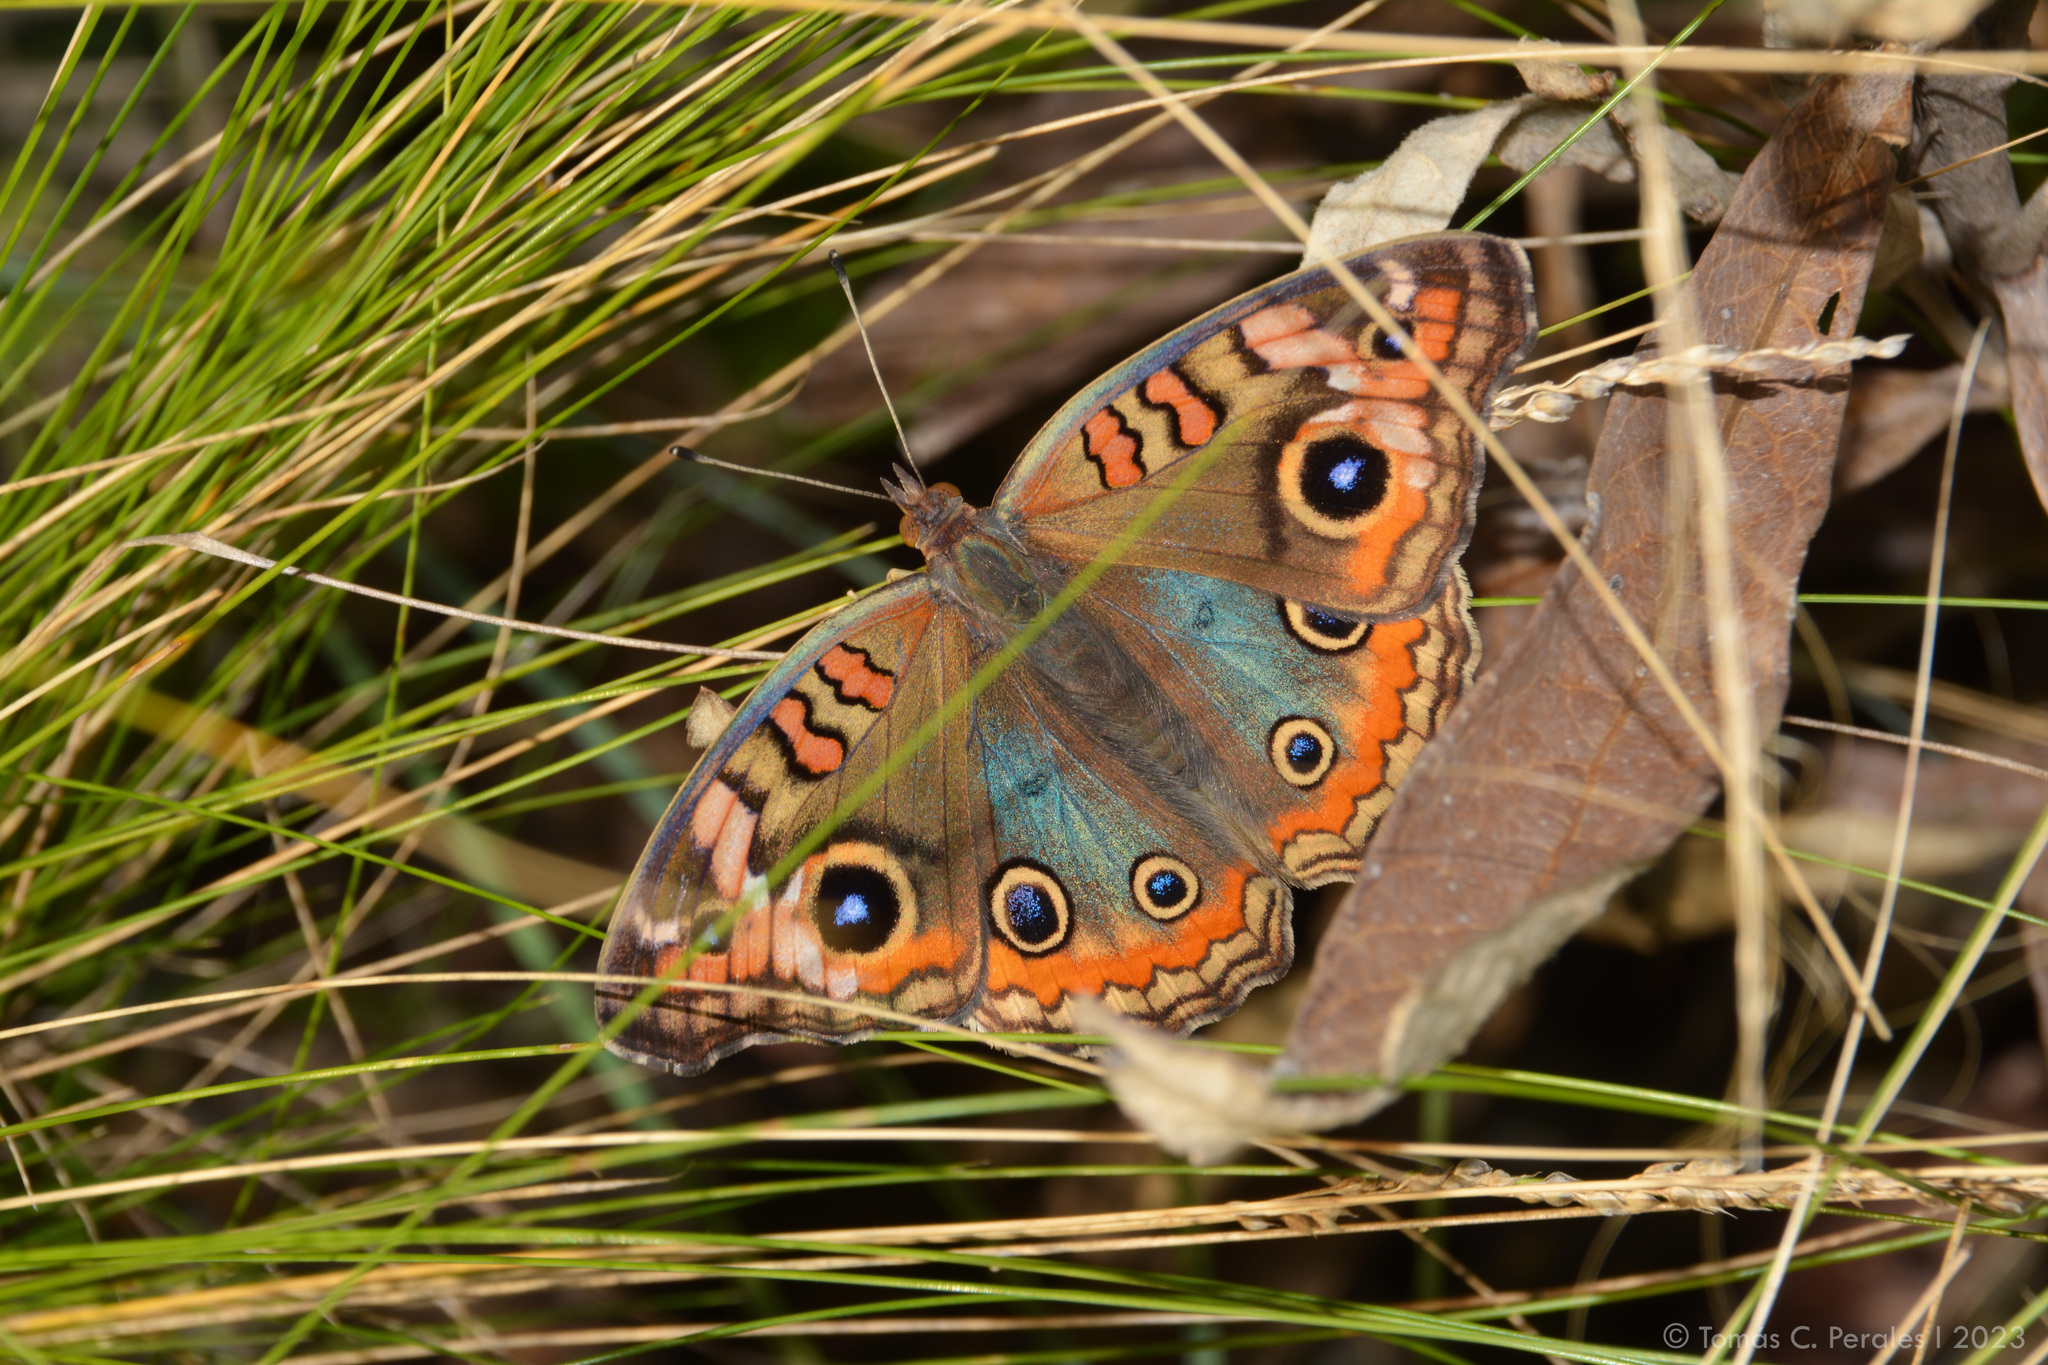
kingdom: Animalia
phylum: Arthropoda
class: Insecta
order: Lepidoptera
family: Nymphalidae
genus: Junonia
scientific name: Junonia lavinia
